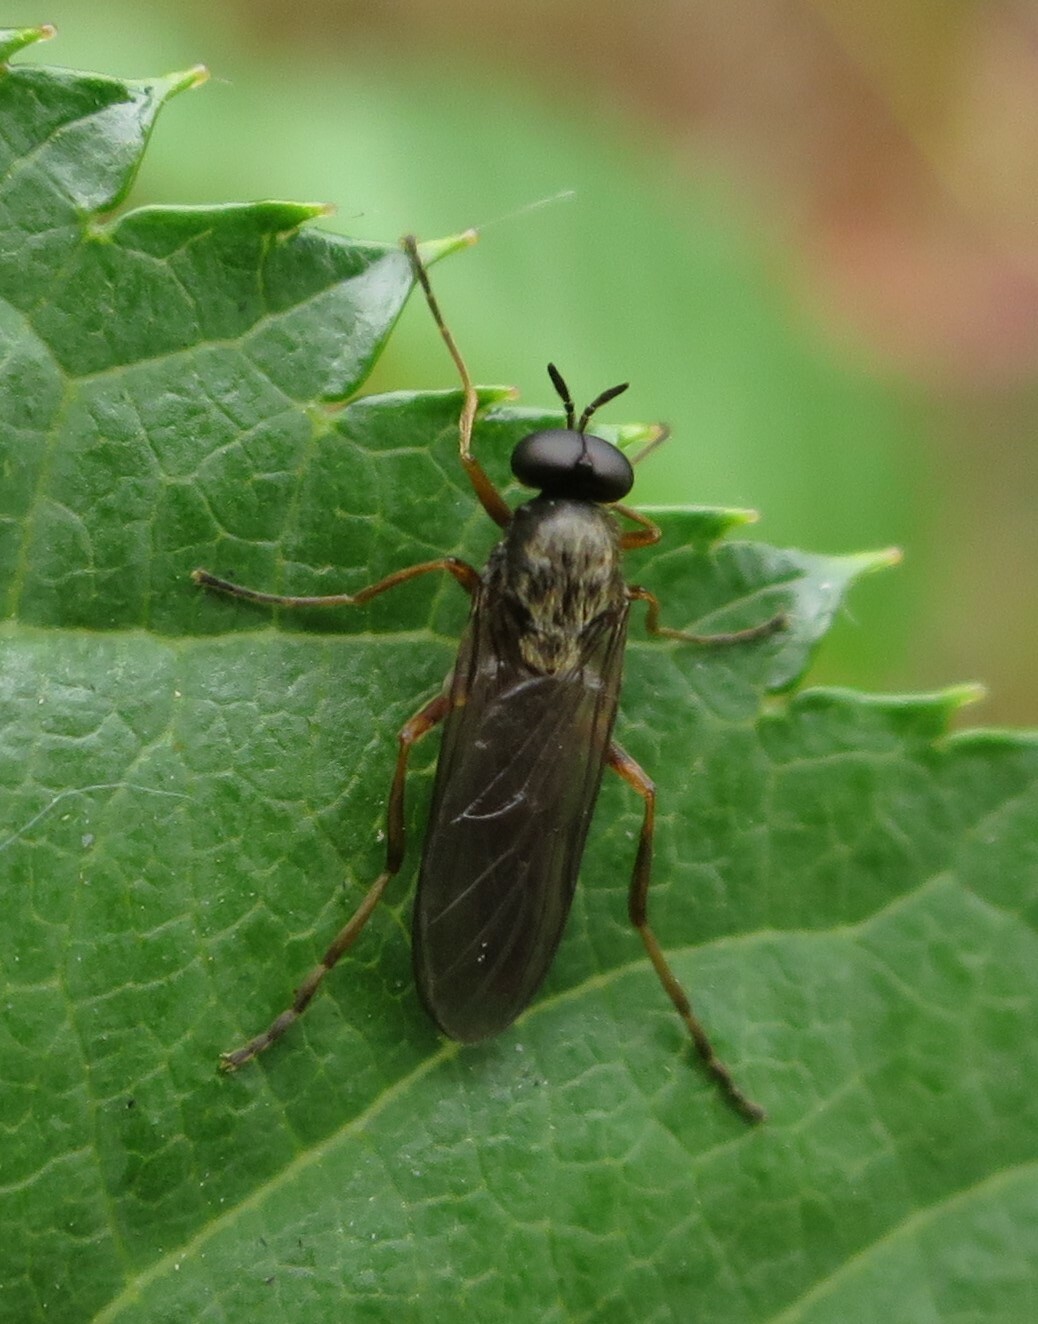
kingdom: Animalia
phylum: Arthropoda
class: Insecta
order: Diptera
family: Stratiomyidae
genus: Inopus
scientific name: Inopus rubriceps
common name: Soldier fly
